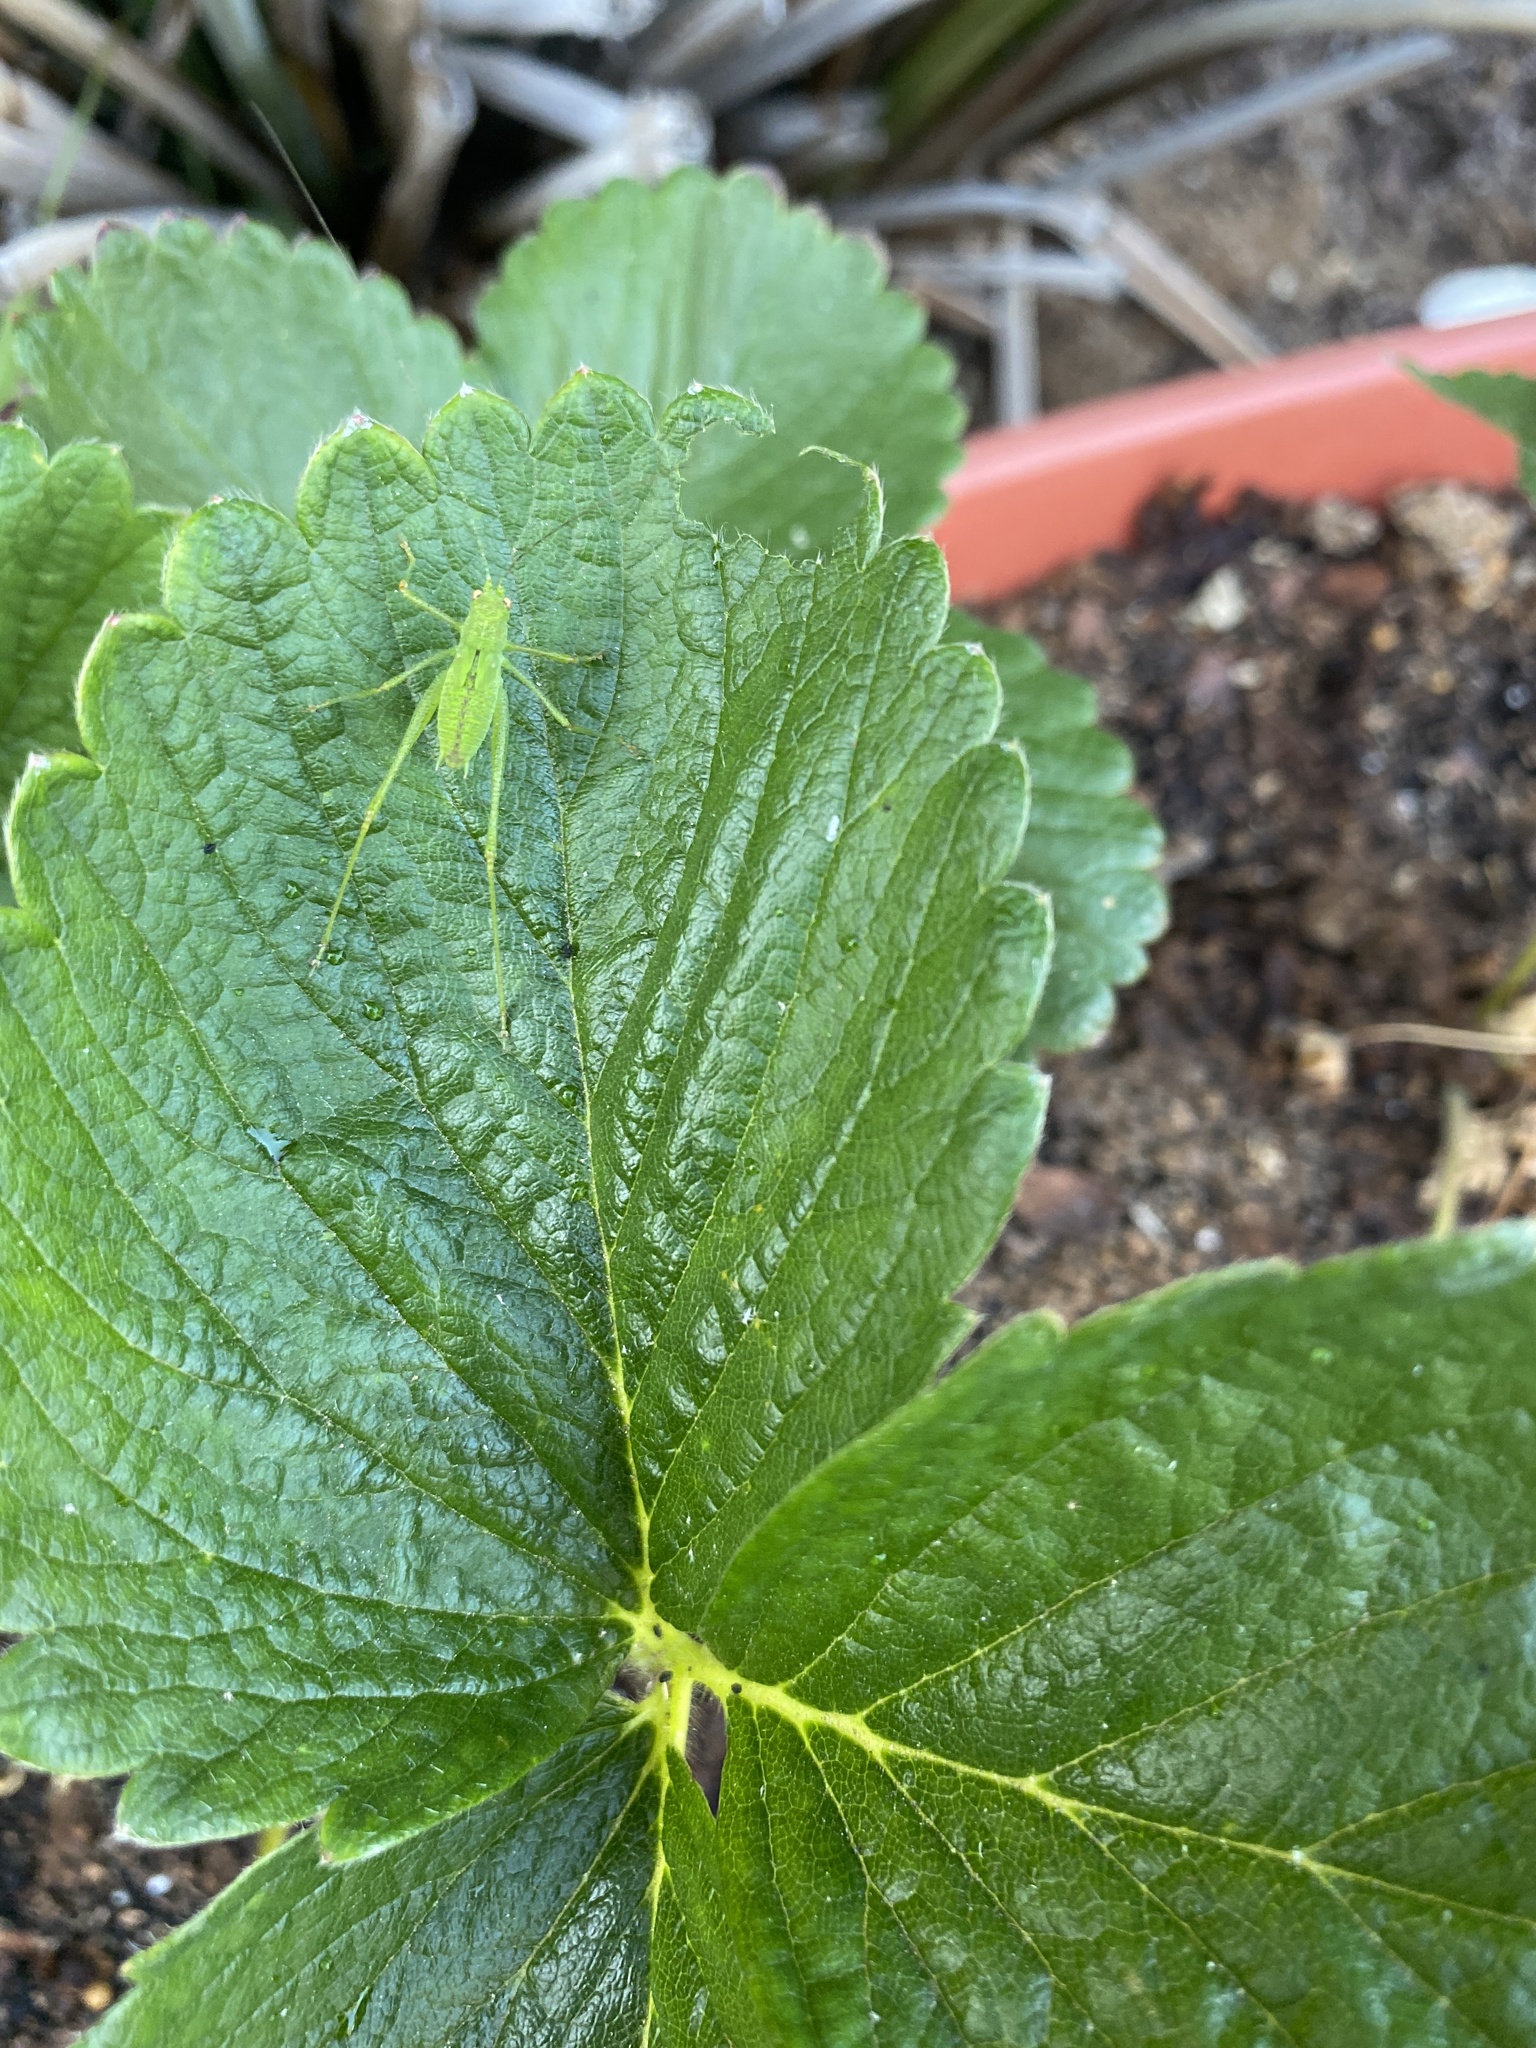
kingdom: Animalia
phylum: Arthropoda
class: Insecta
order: Orthoptera
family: Tettigoniidae
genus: Phaneroptera
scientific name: Phaneroptera nana
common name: Southern sickle bush-cricket
